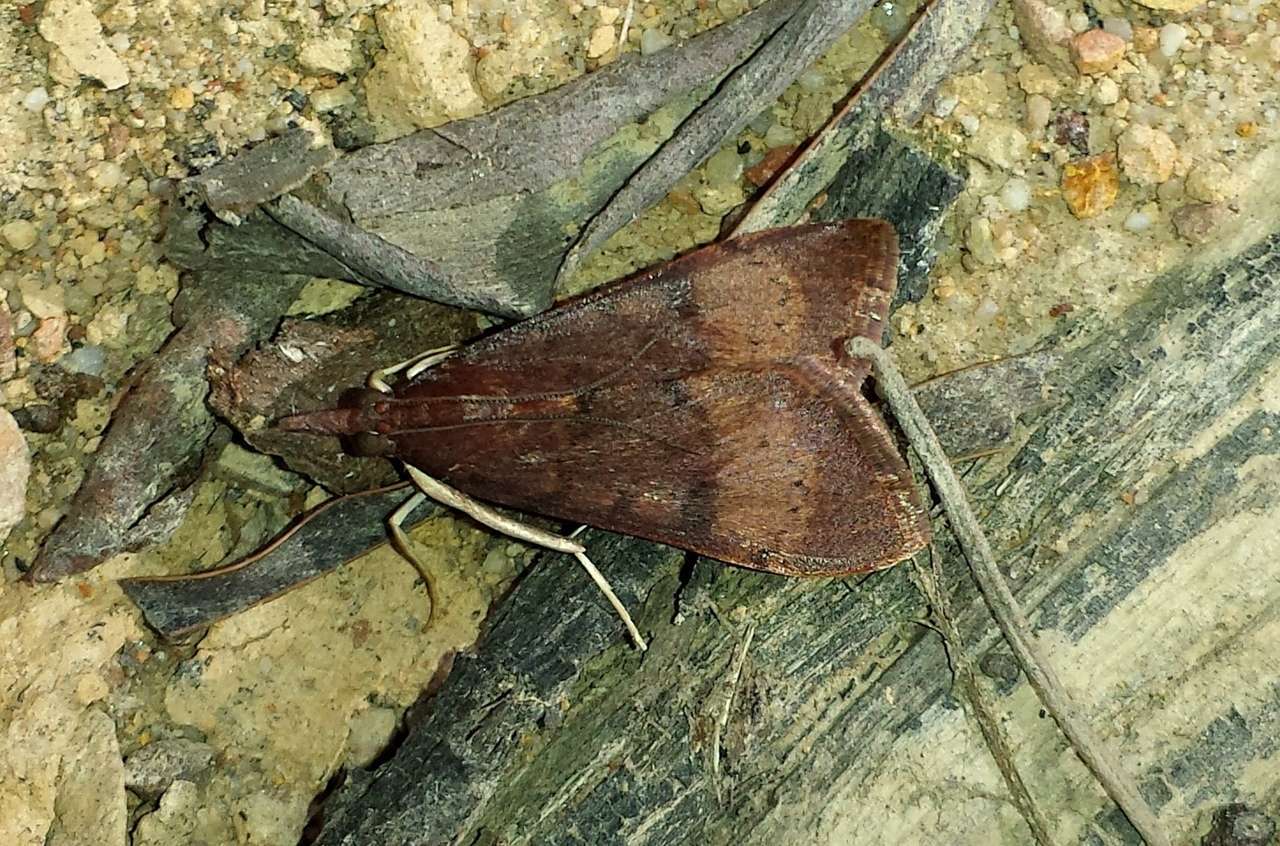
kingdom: Animalia
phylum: Arthropoda
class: Insecta
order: Lepidoptera
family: Crambidae
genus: Uresiphita
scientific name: Uresiphita ornithopteralis
